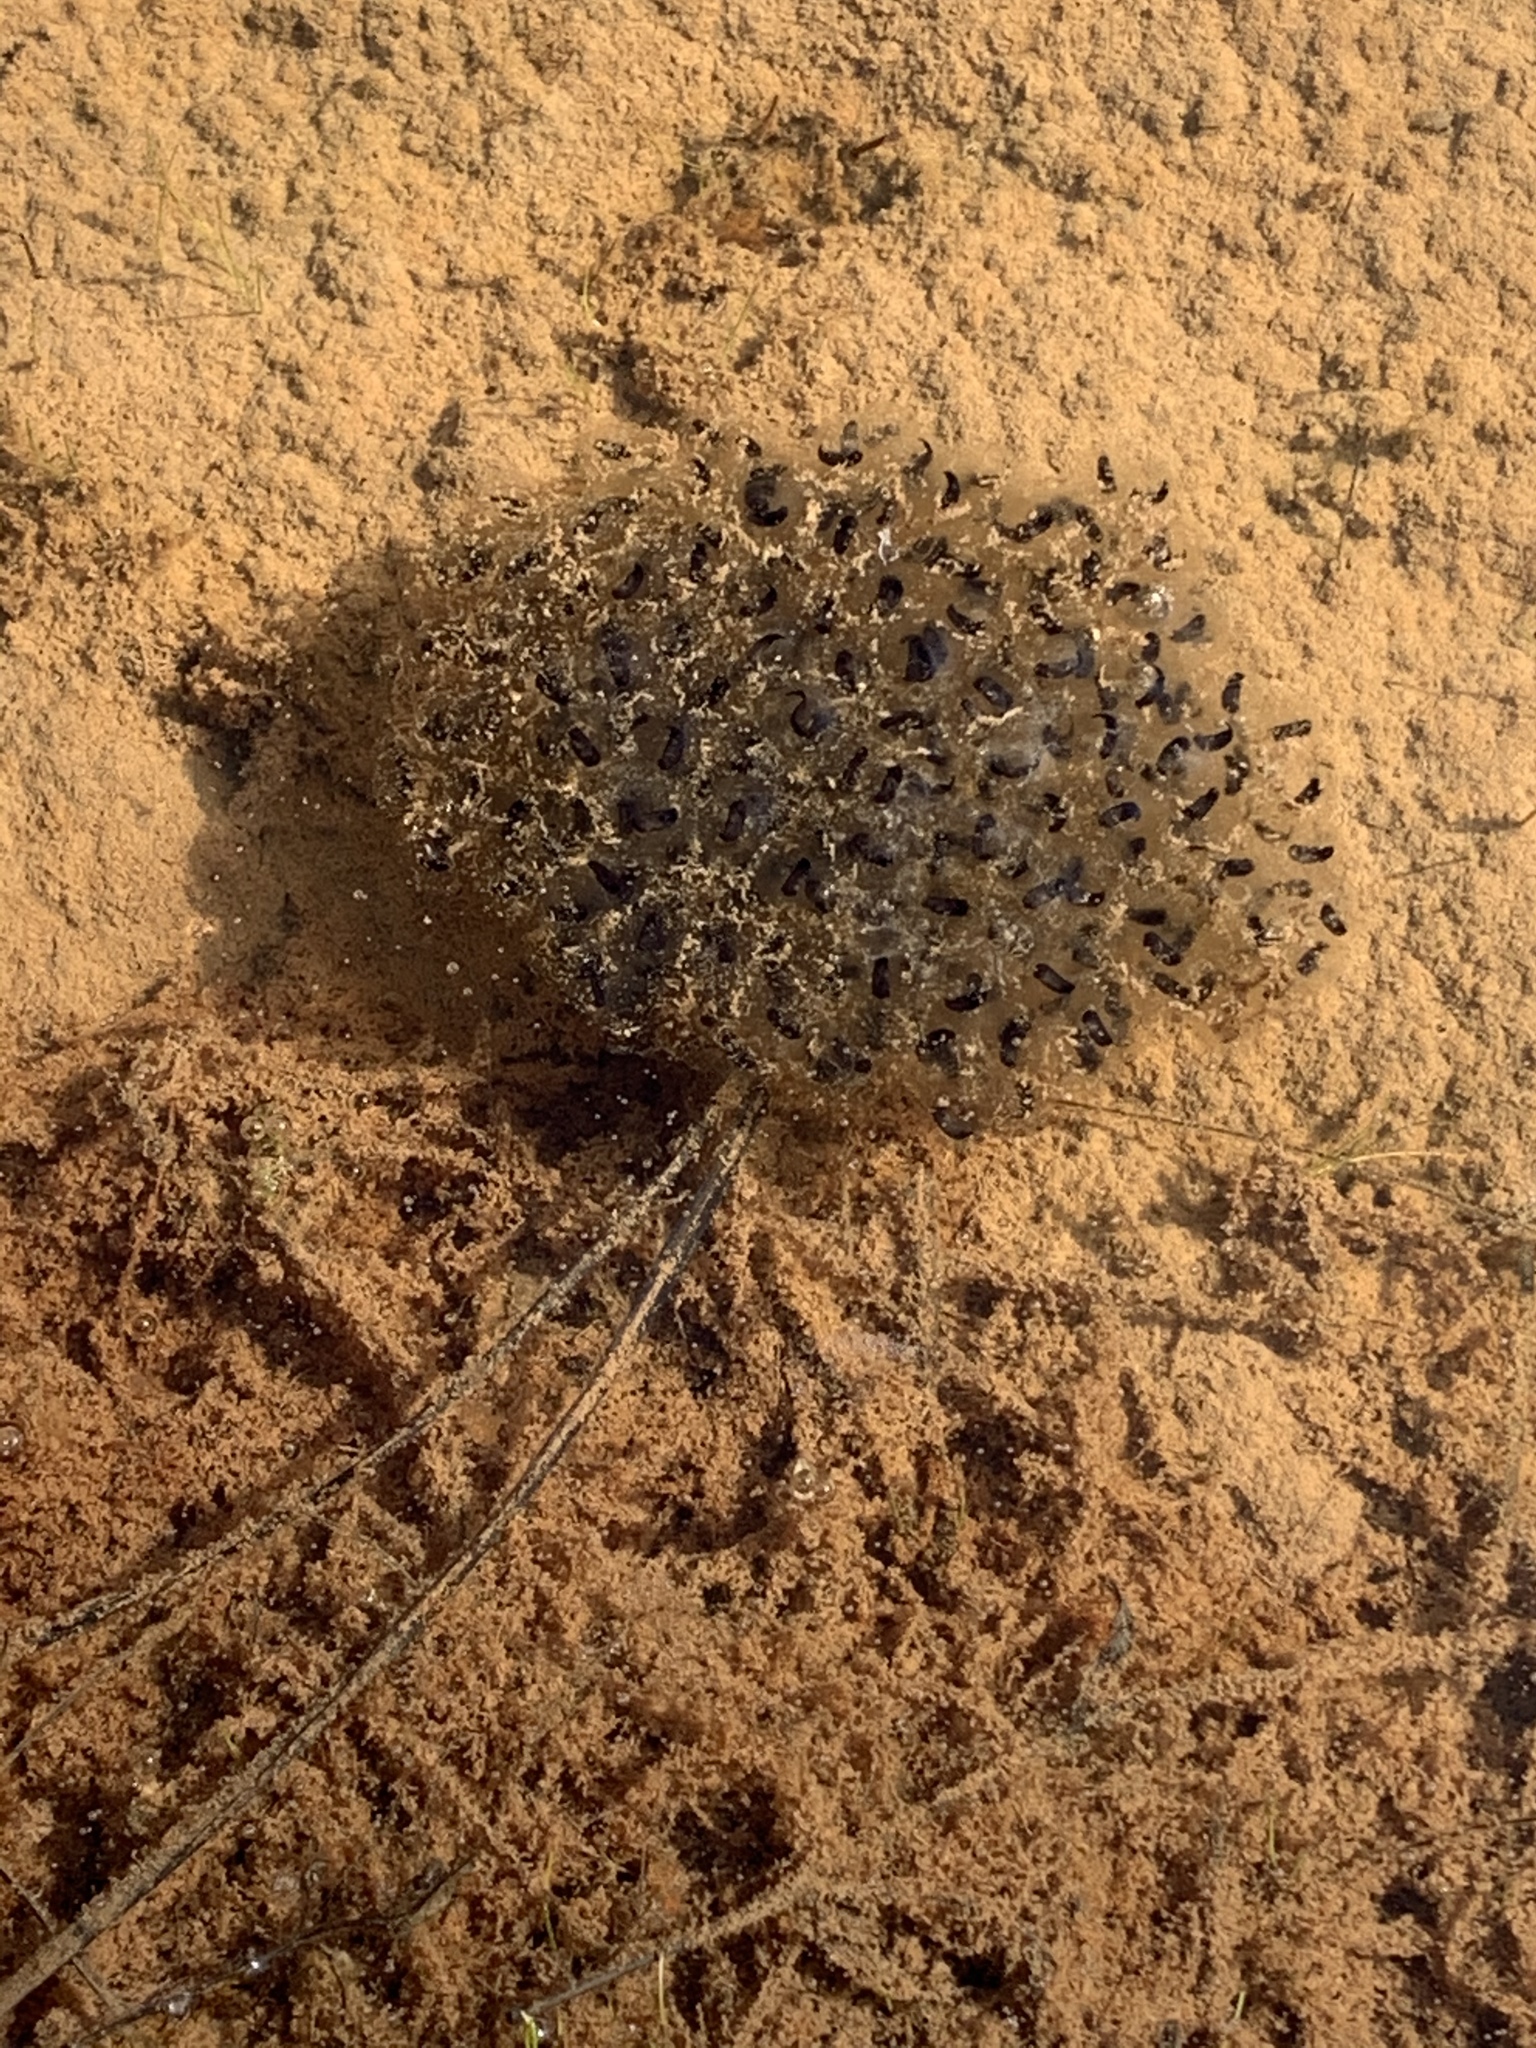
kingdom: Animalia
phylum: Chordata
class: Amphibia
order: Anura
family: Ranidae
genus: Lithobates
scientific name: Lithobates sylvaticus
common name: Wood frog
